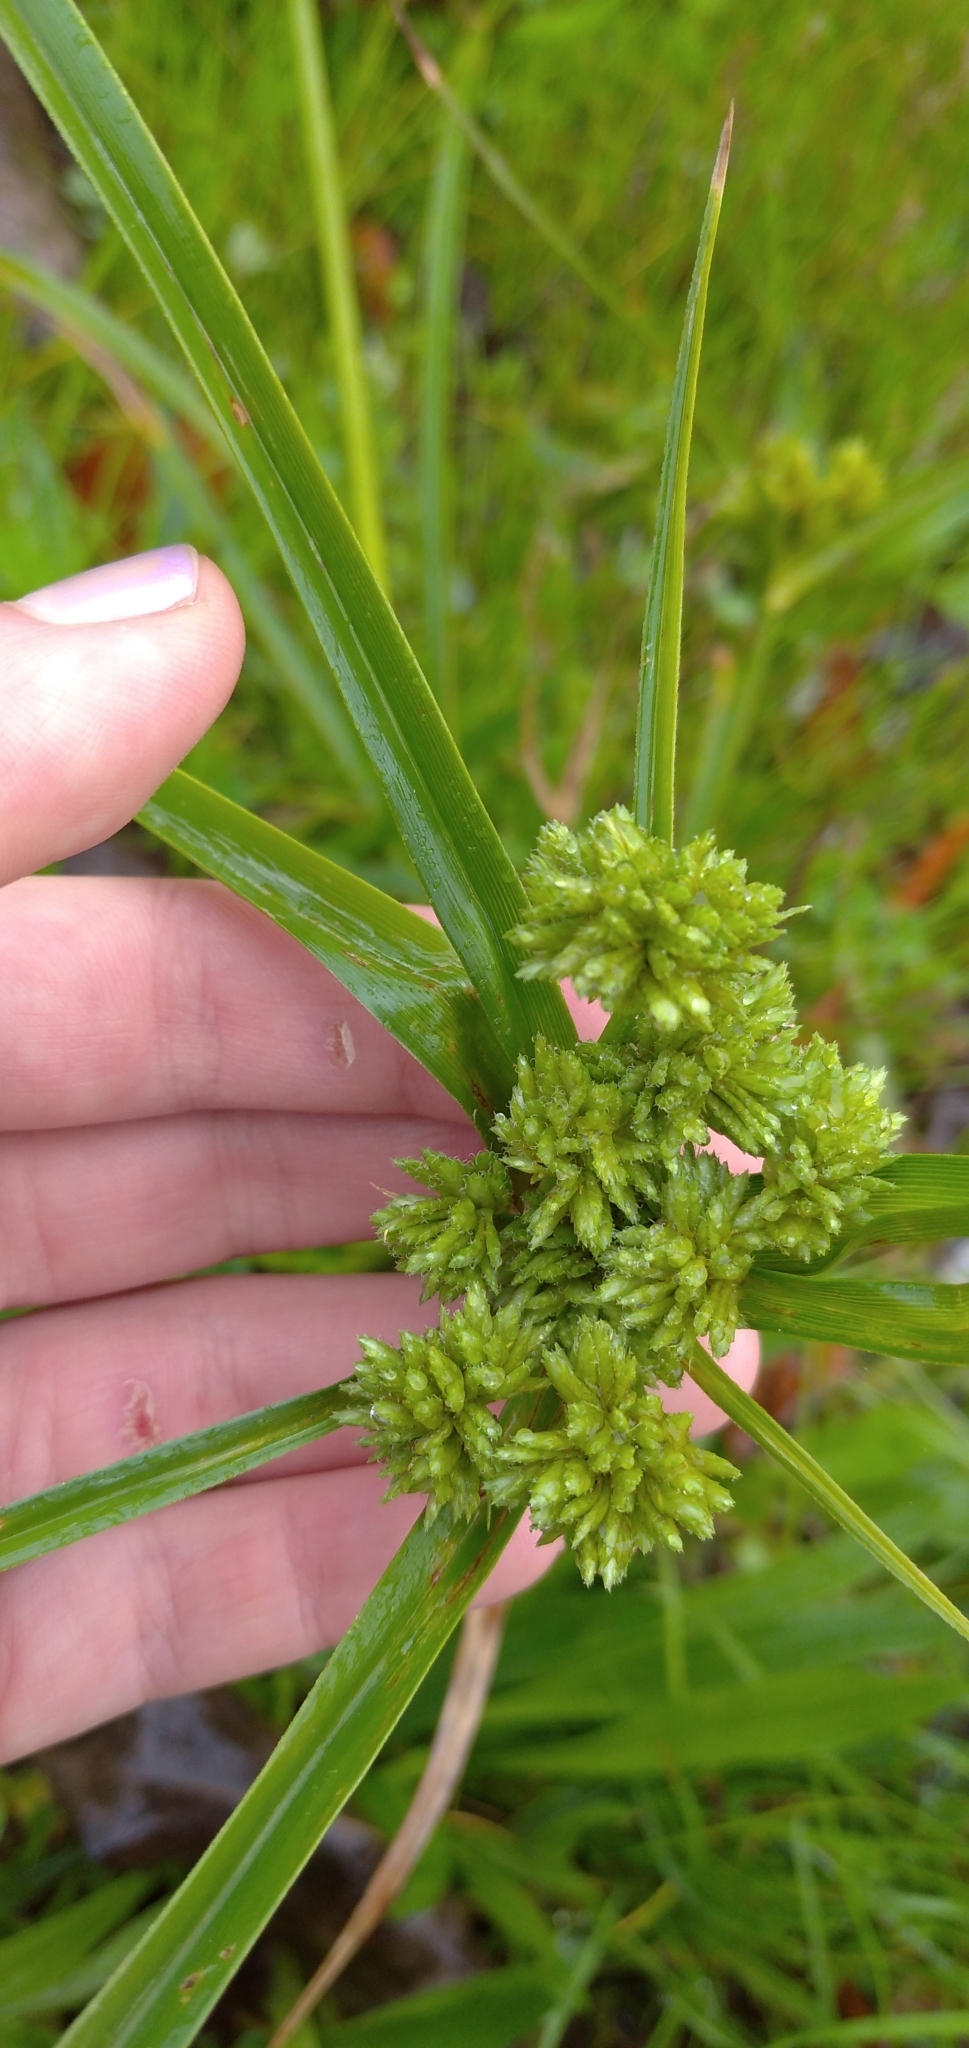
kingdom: Plantae
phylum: Tracheophyta
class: Liliopsida
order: Poales
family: Cyperaceae
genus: Cyperus
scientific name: Cyperus eragrostis
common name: Tall flatsedge
